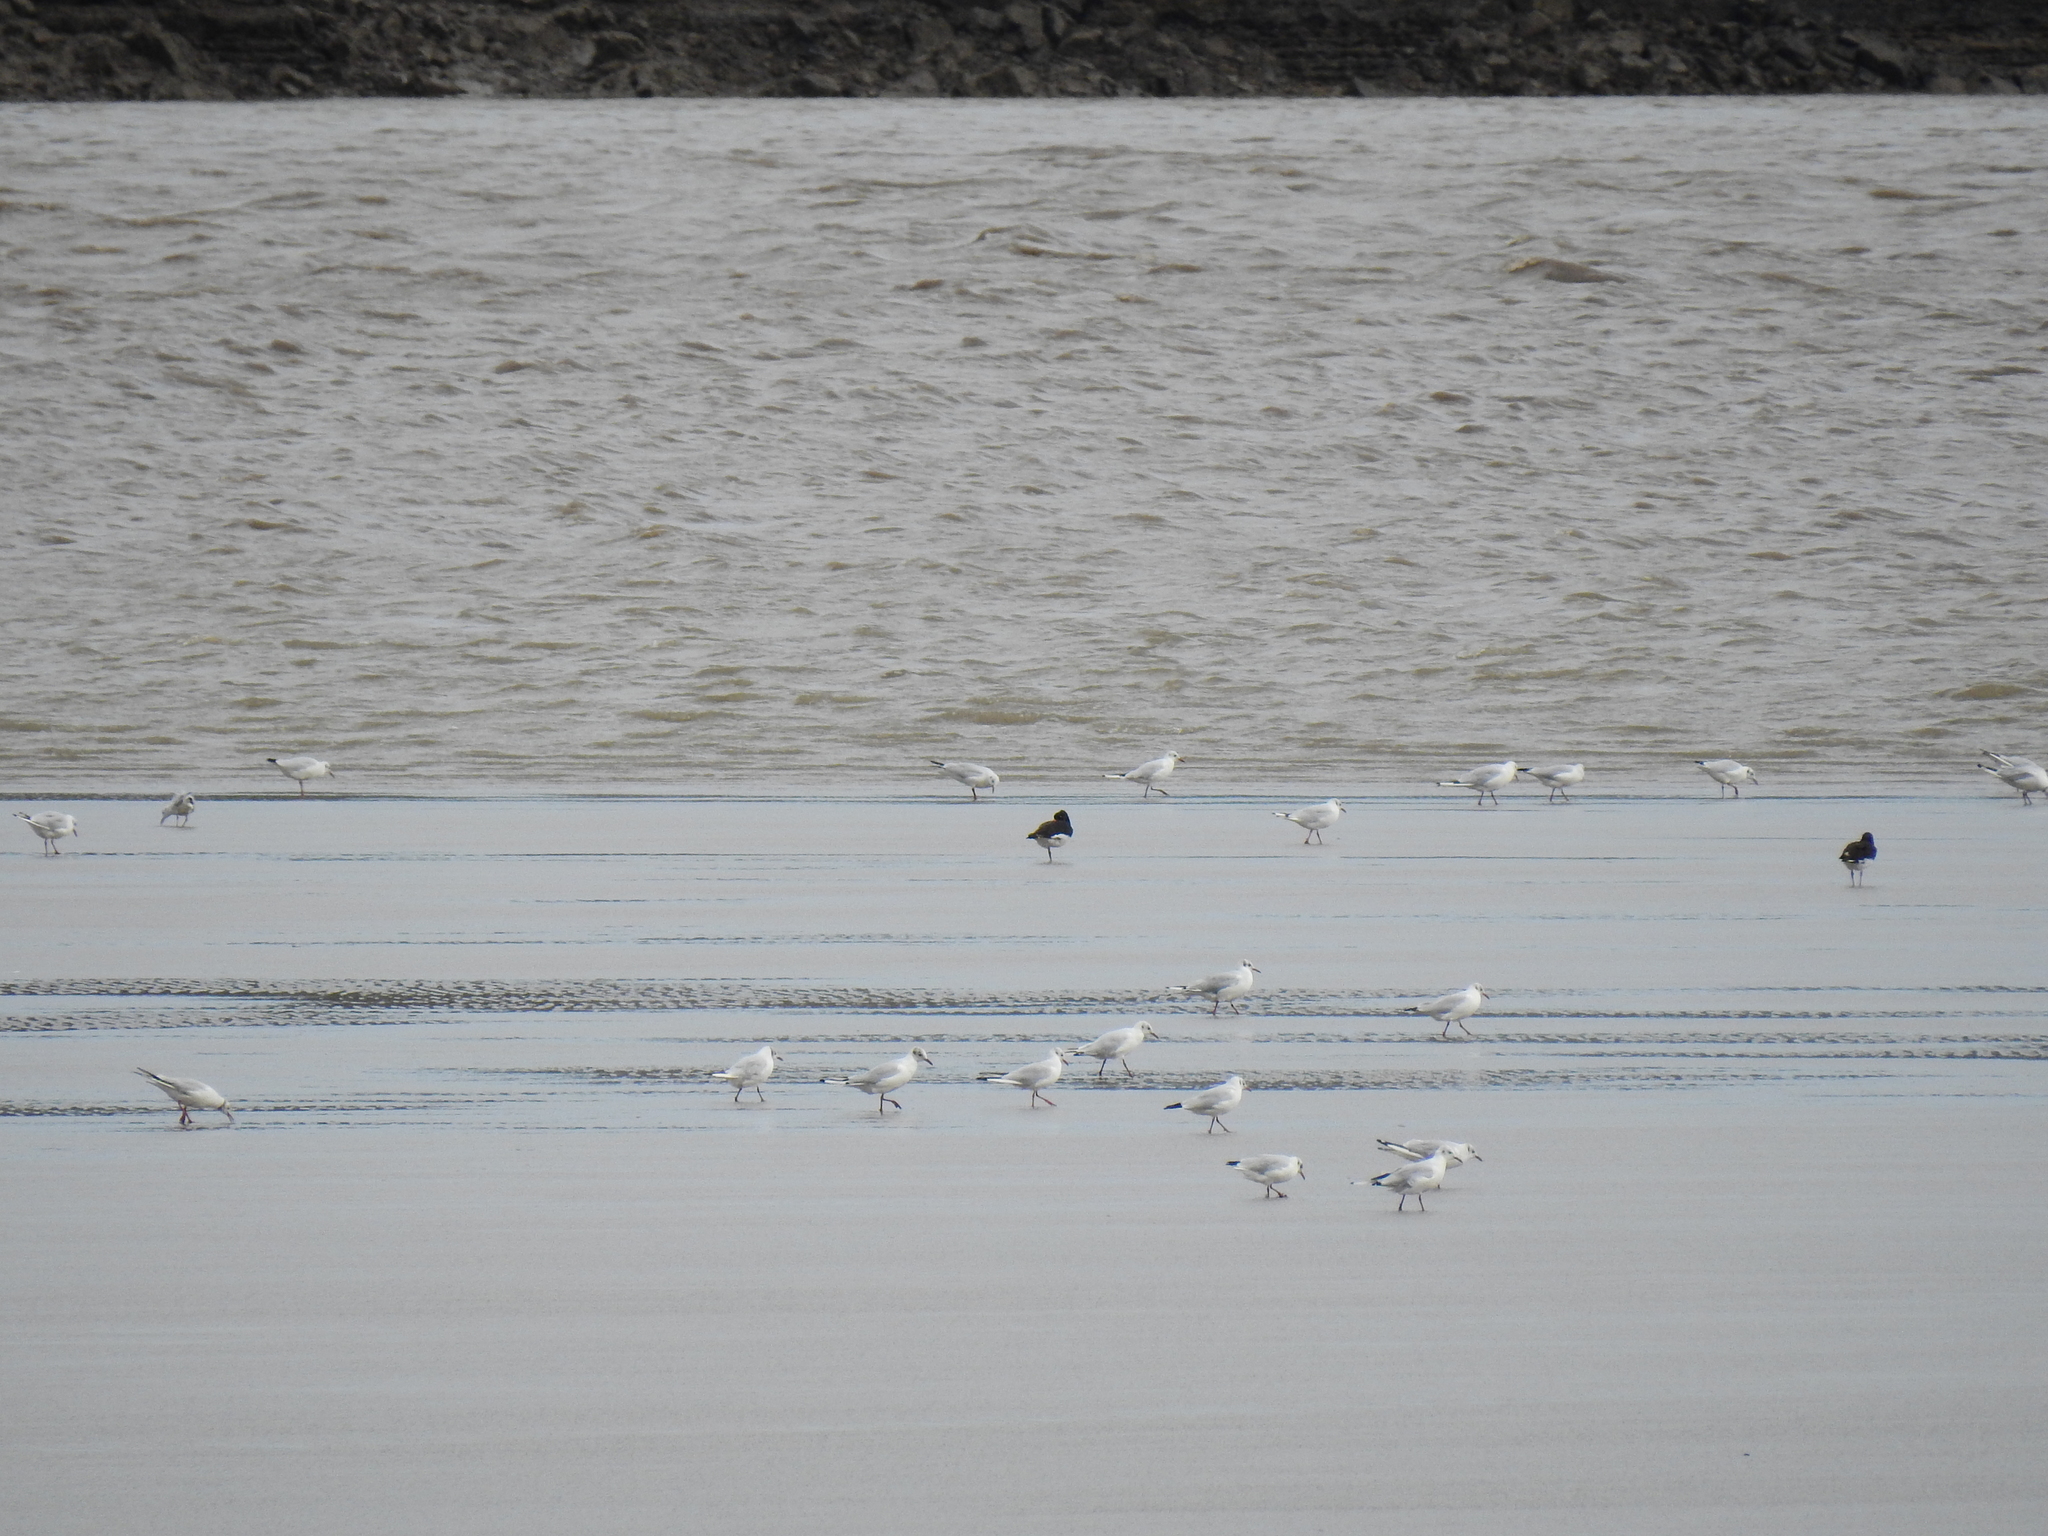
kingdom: Animalia
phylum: Chordata
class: Aves
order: Charadriiformes
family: Laridae
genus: Chroicocephalus
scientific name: Chroicocephalus ridibundus
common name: Black-headed gull
